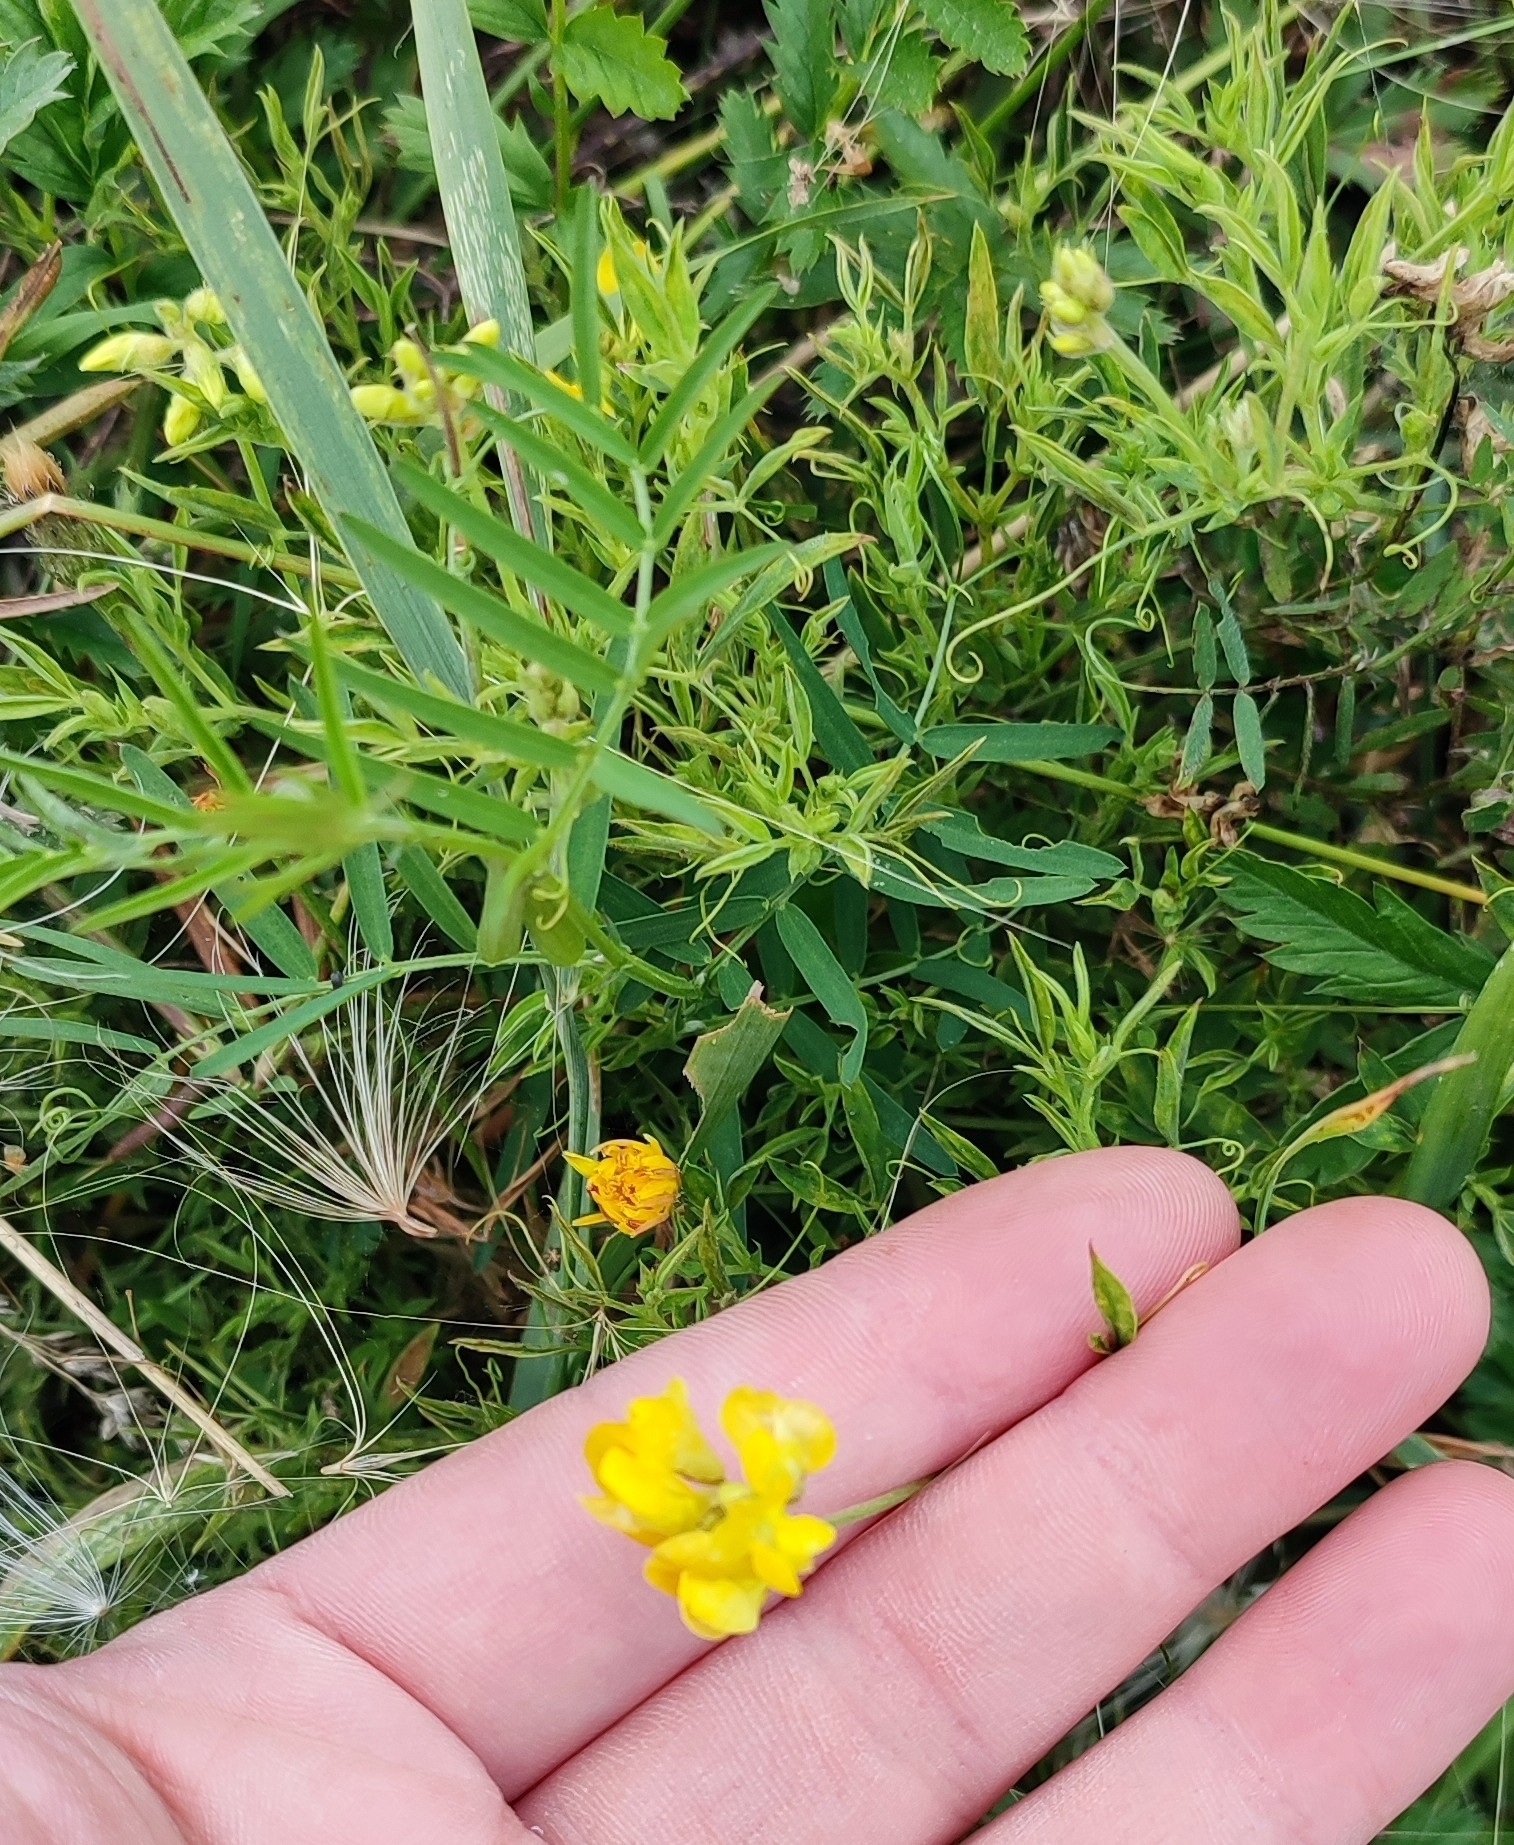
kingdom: Plantae
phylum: Tracheophyta
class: Magnoliopsida
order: Fabales
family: Fabaceae
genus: Lathyrus
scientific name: Lathyrus pratensis
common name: Meadow vetchling
